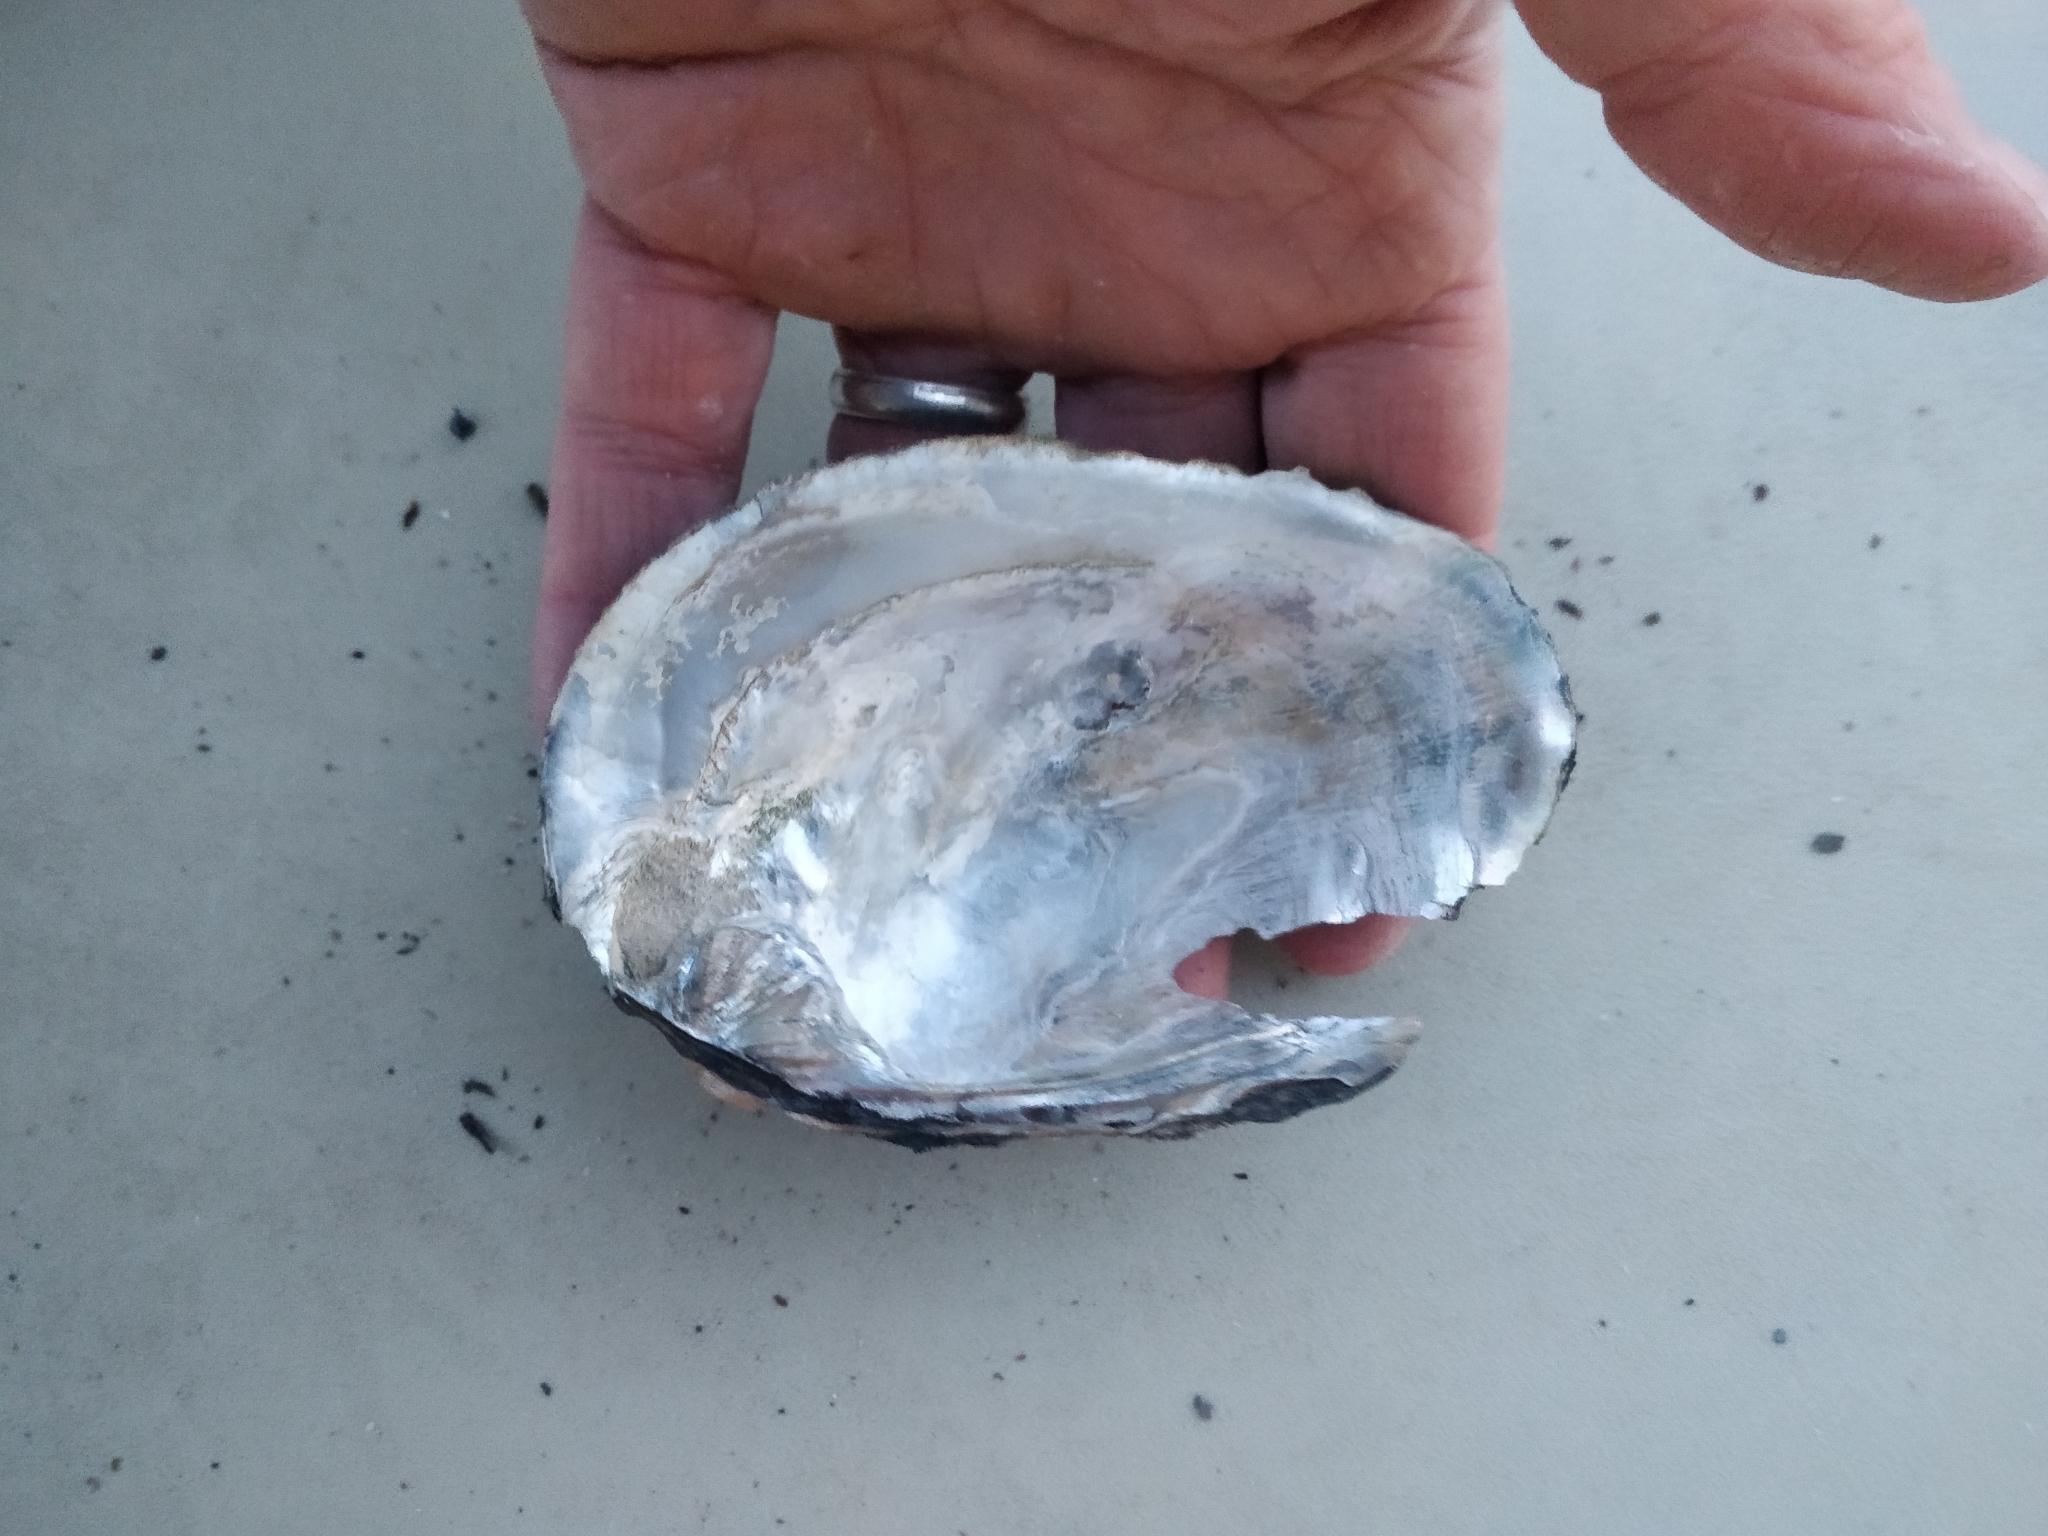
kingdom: Animalia
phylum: Mollusca
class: Bivalvia
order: Unionida
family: Unionidae
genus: Amblema
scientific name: Amblema plicata
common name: Threeridge
